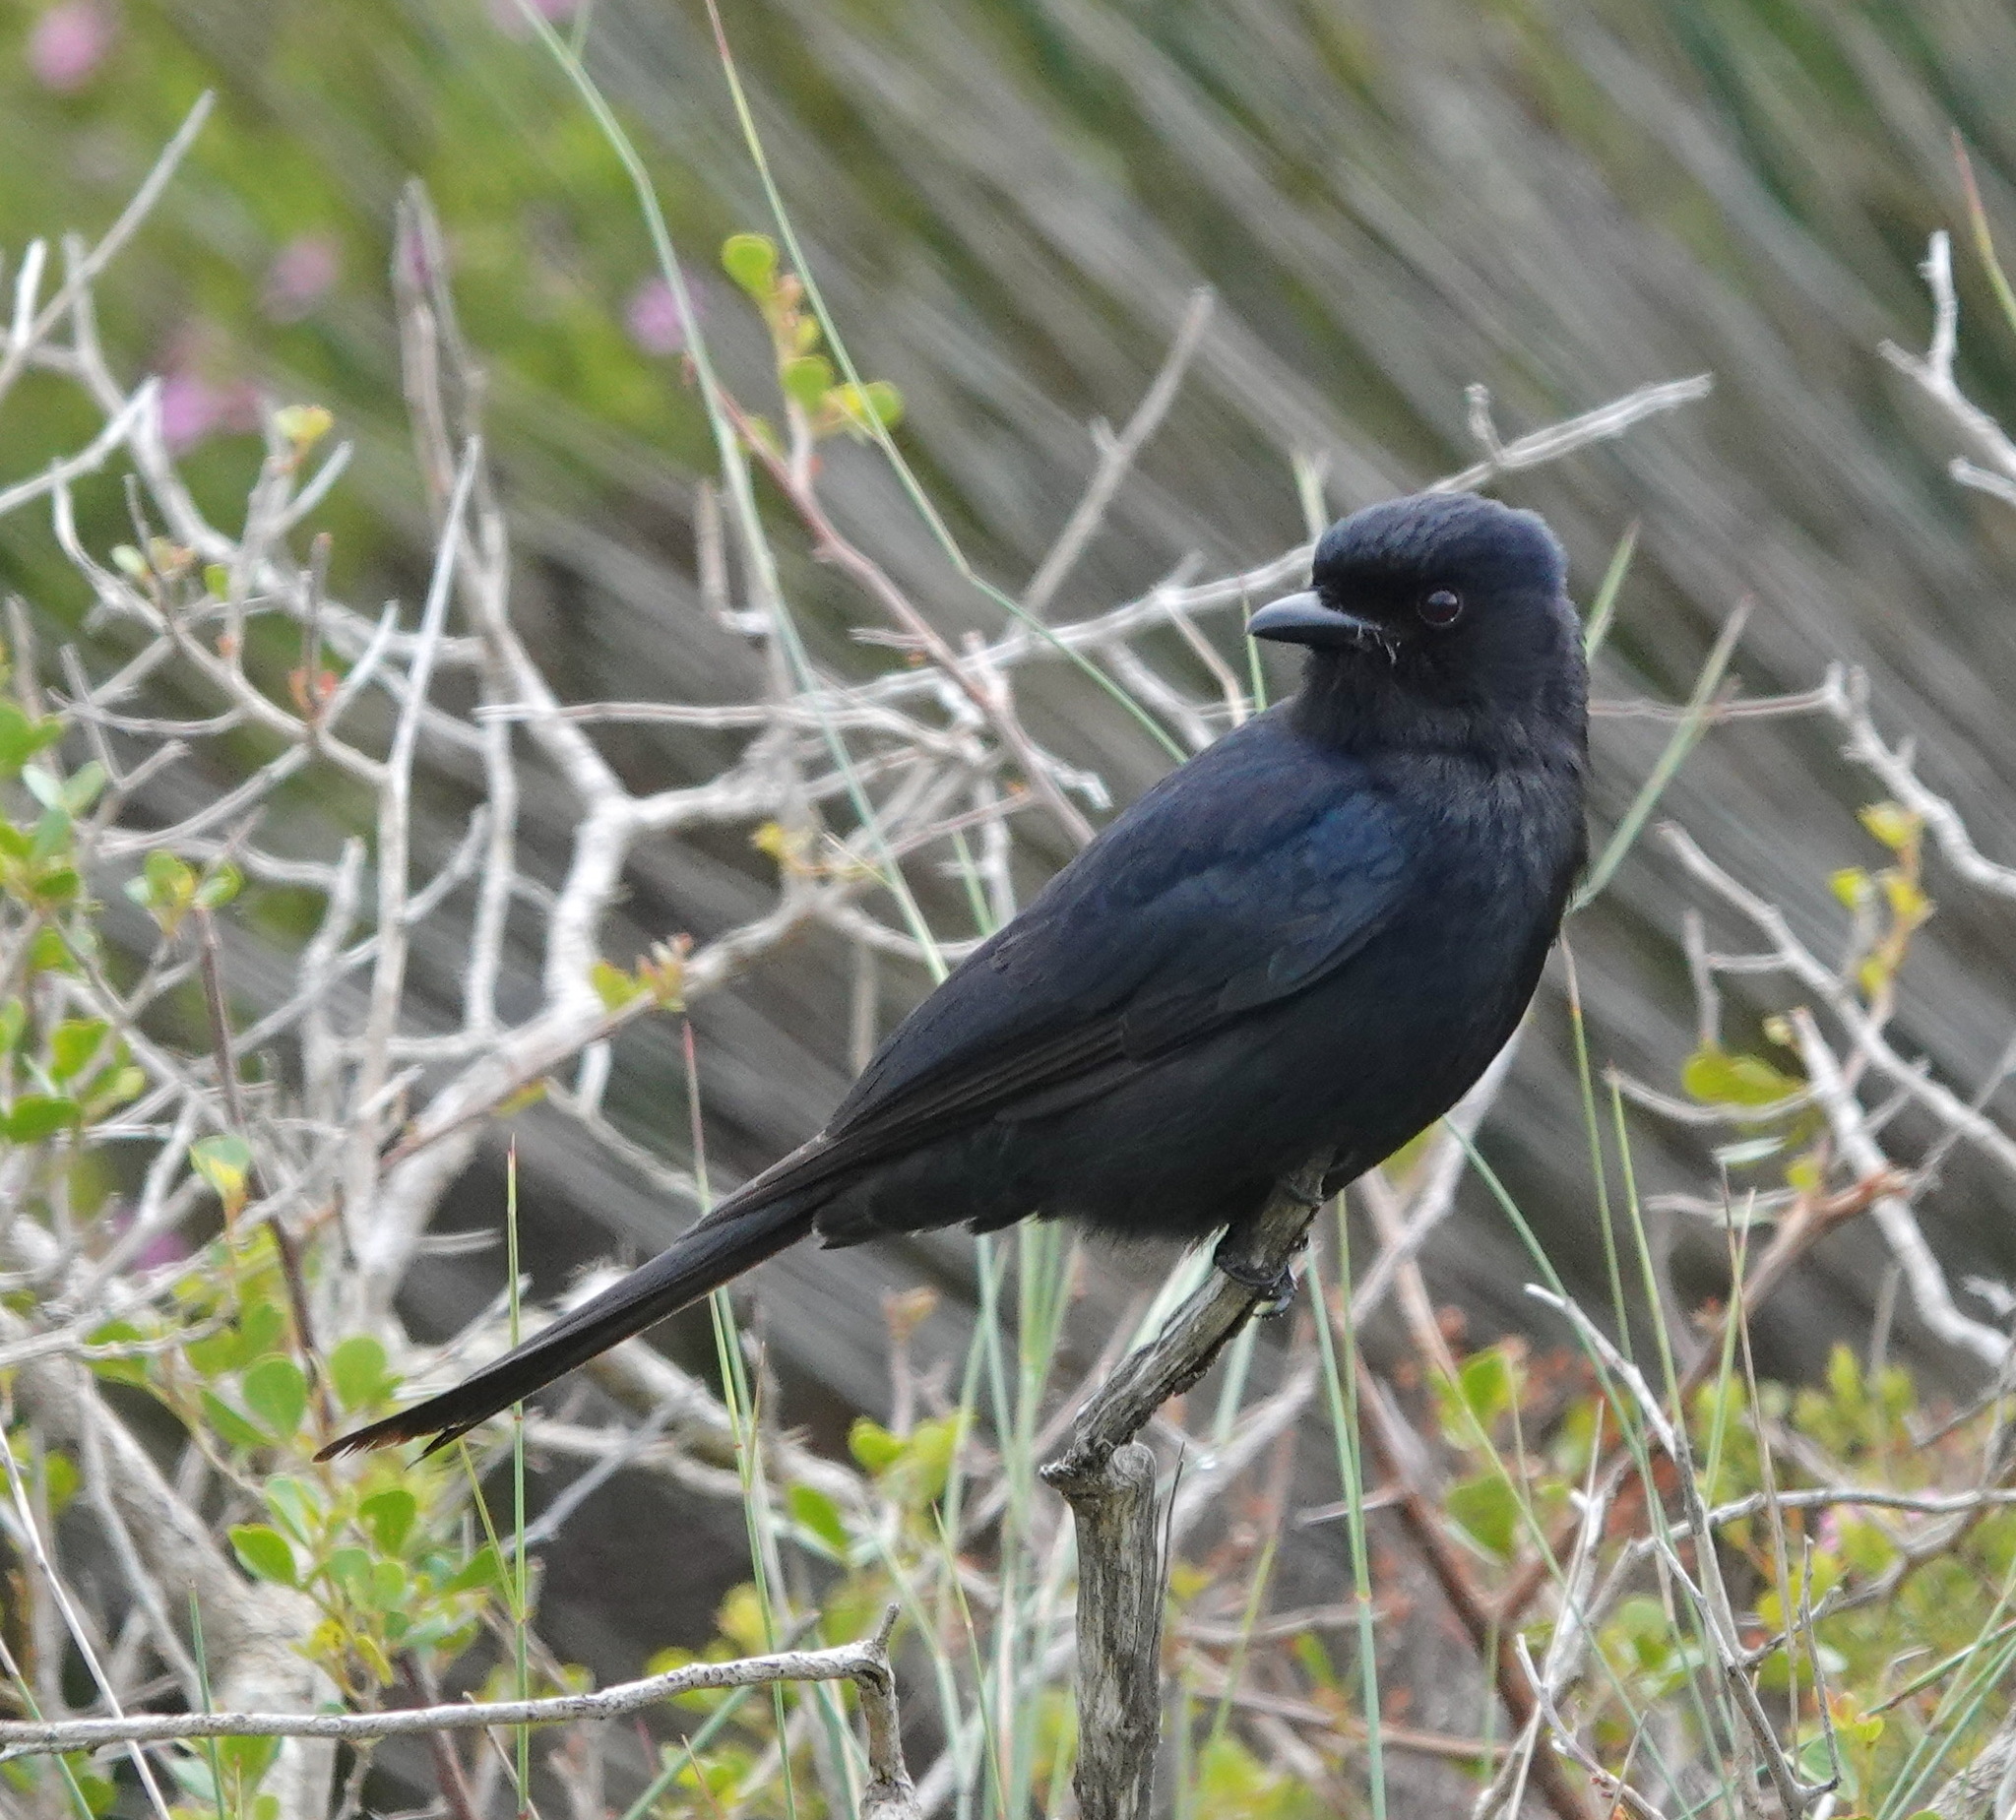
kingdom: Animalia
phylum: Chordata
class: Aves
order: Passeriformes
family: Dicruridae
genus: Dicrurus
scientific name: Dicrurus adsimilis
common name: Fork-tailed drongo
